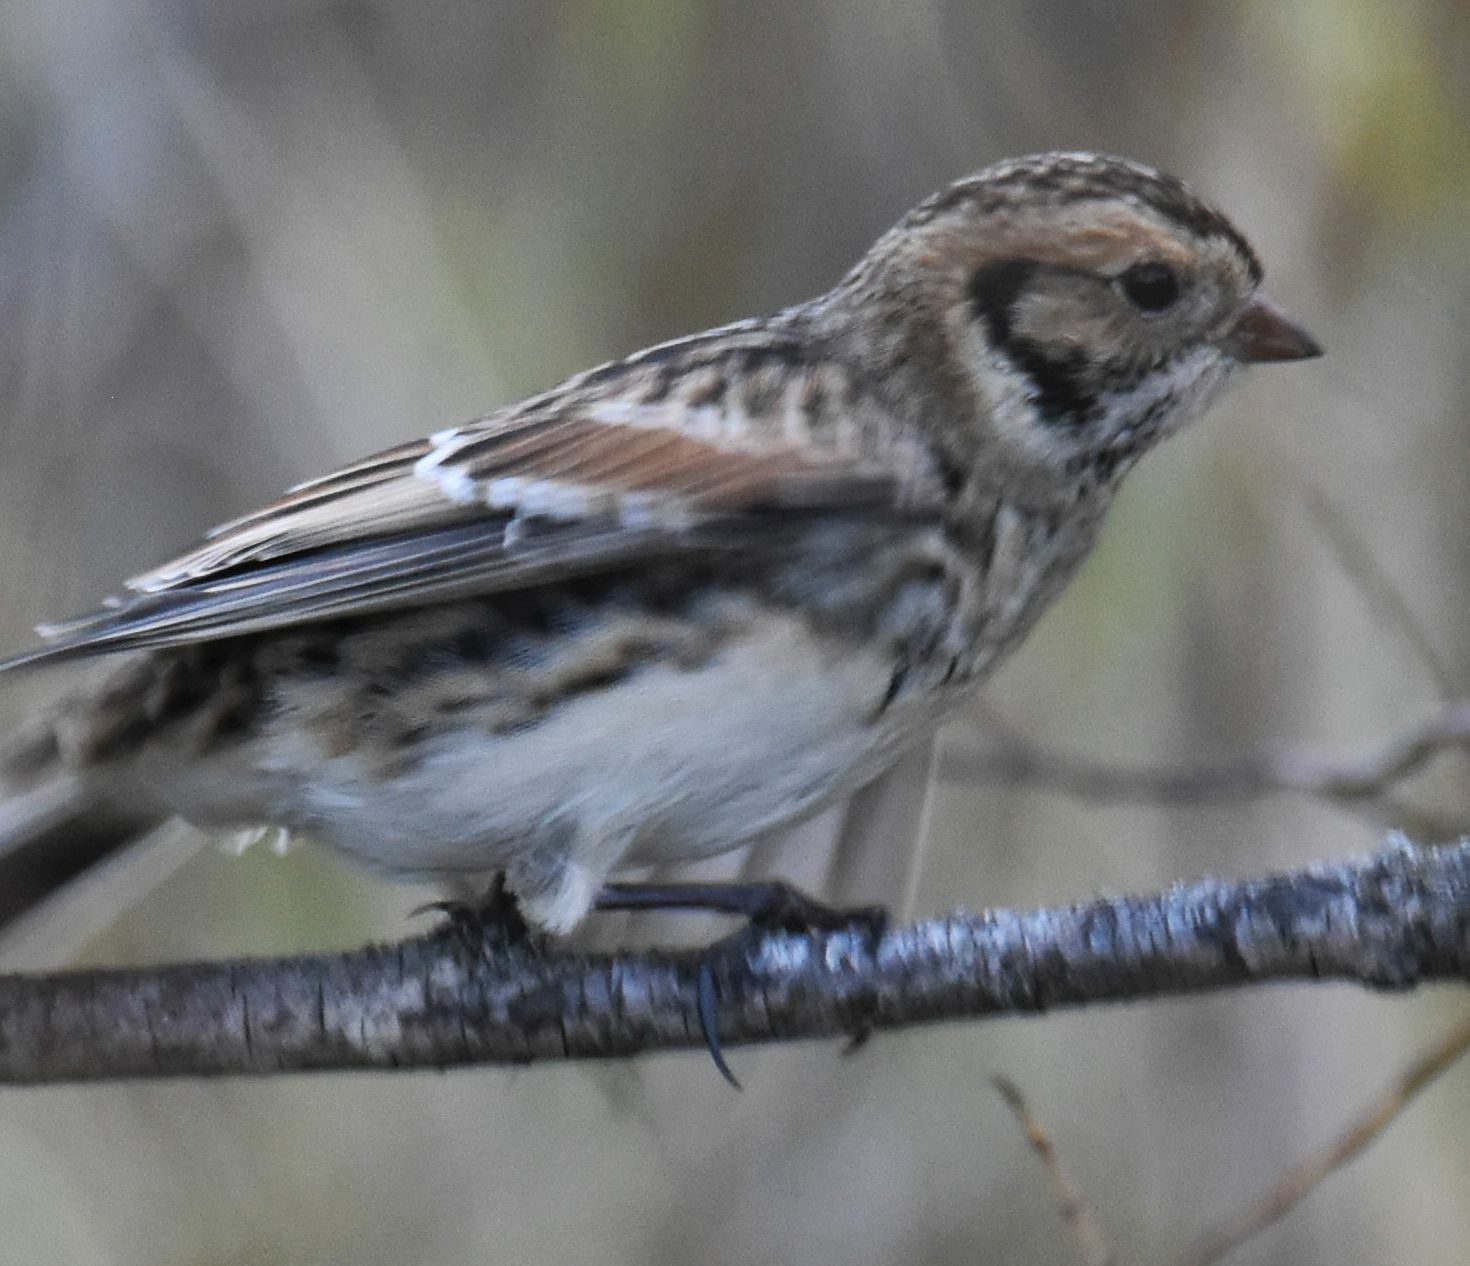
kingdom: Animalia
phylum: Chordata
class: Aves
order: Passeriformes
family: Calcariidae
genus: Calcarius
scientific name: Calcarius lapponicus
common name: Lapland longspur
